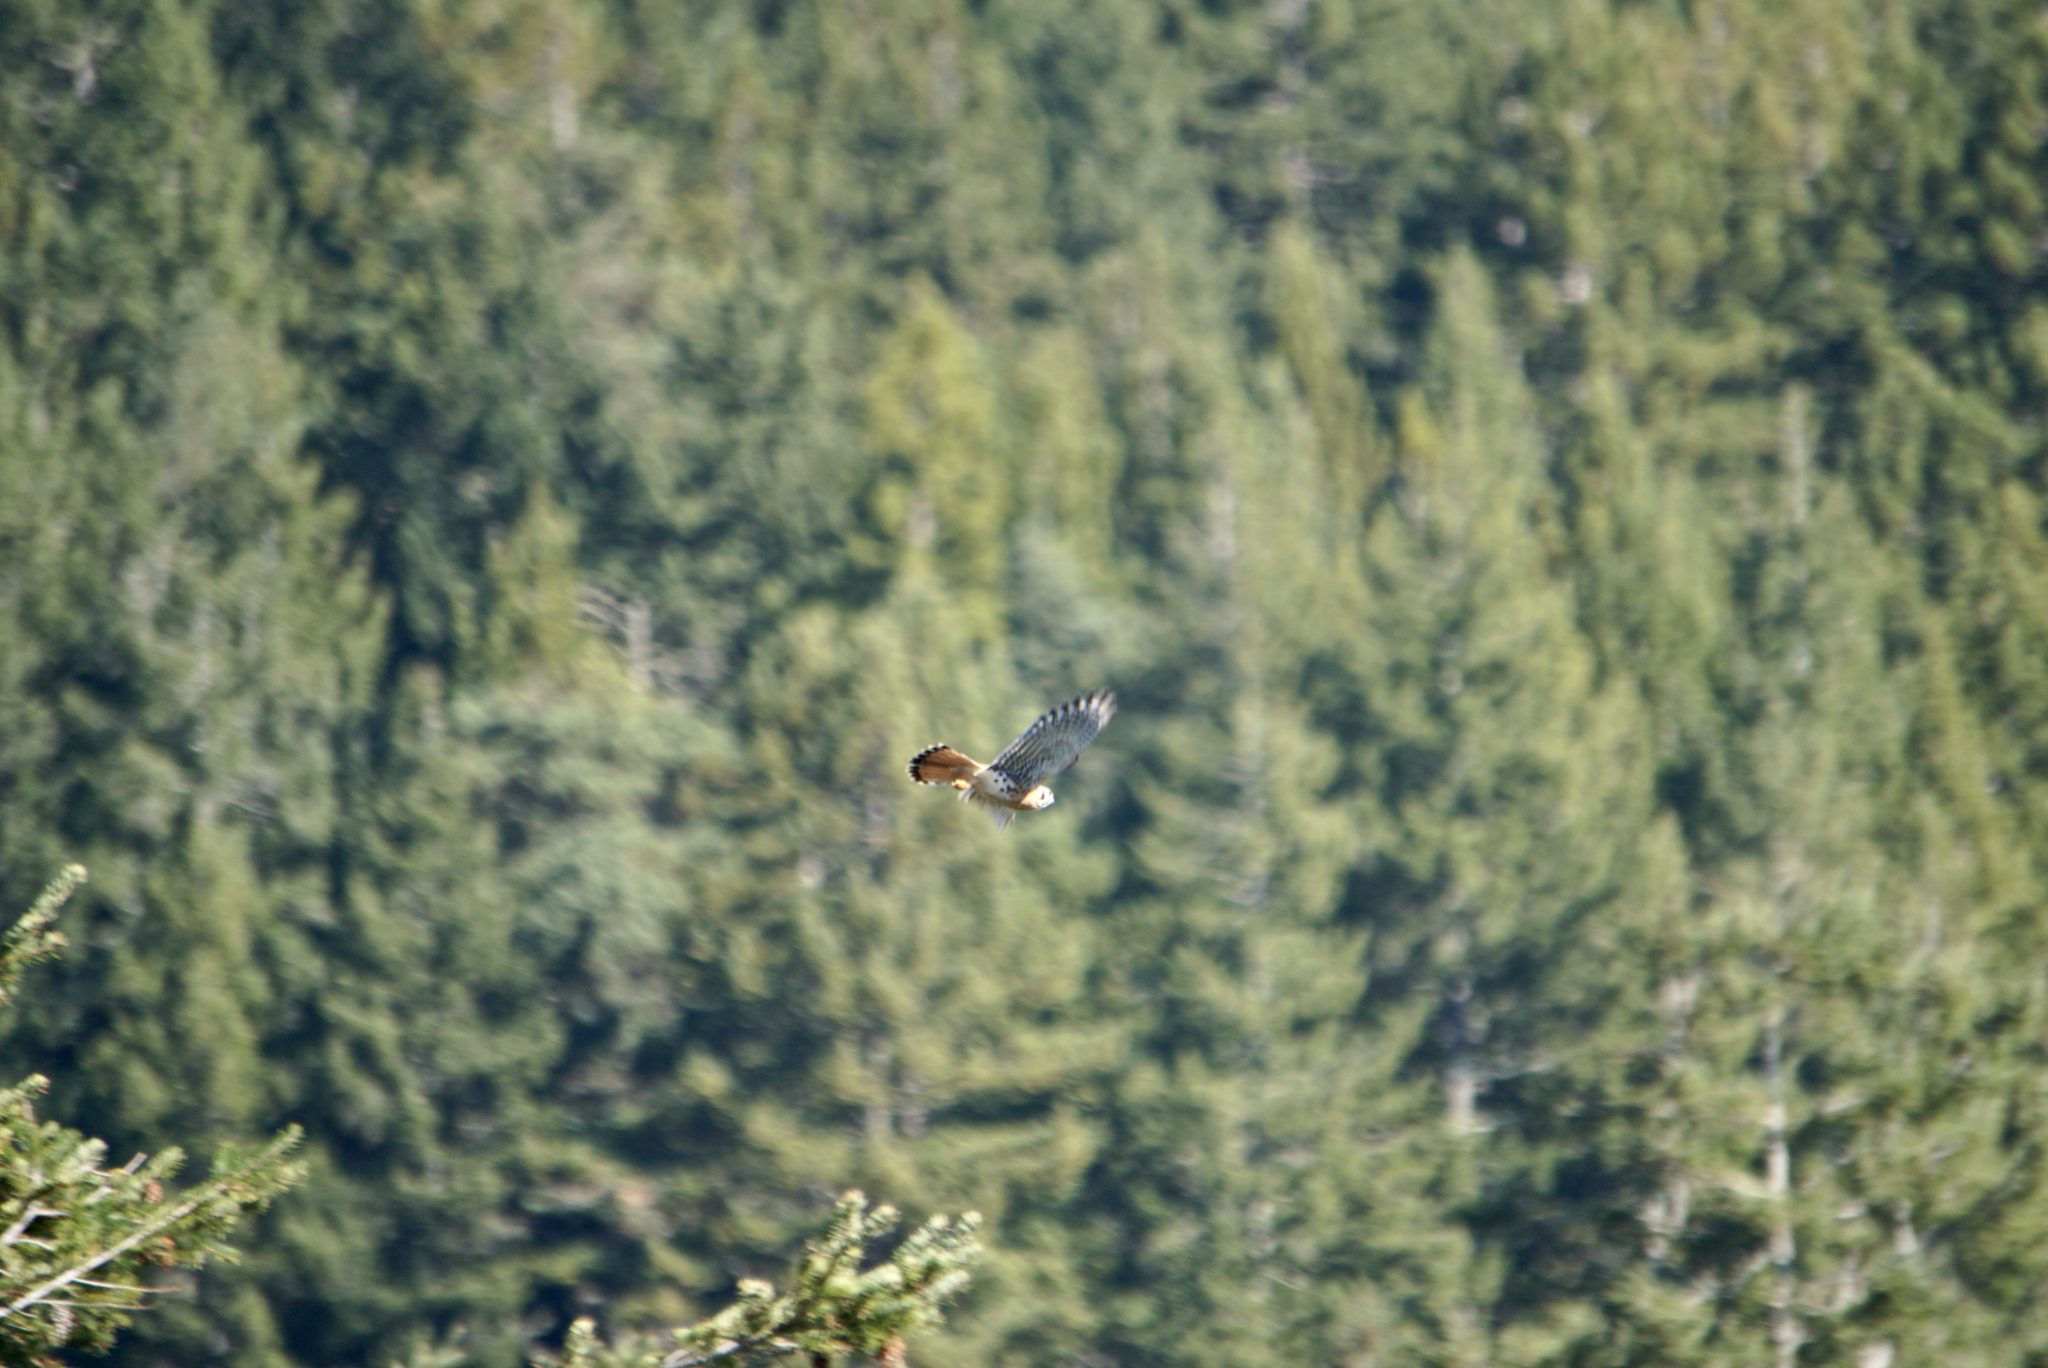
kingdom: Animalia
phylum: Chordata
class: Aves
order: Falconiformes
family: Falconidae
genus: Falco
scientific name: Falco sparverius
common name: American kestrel
